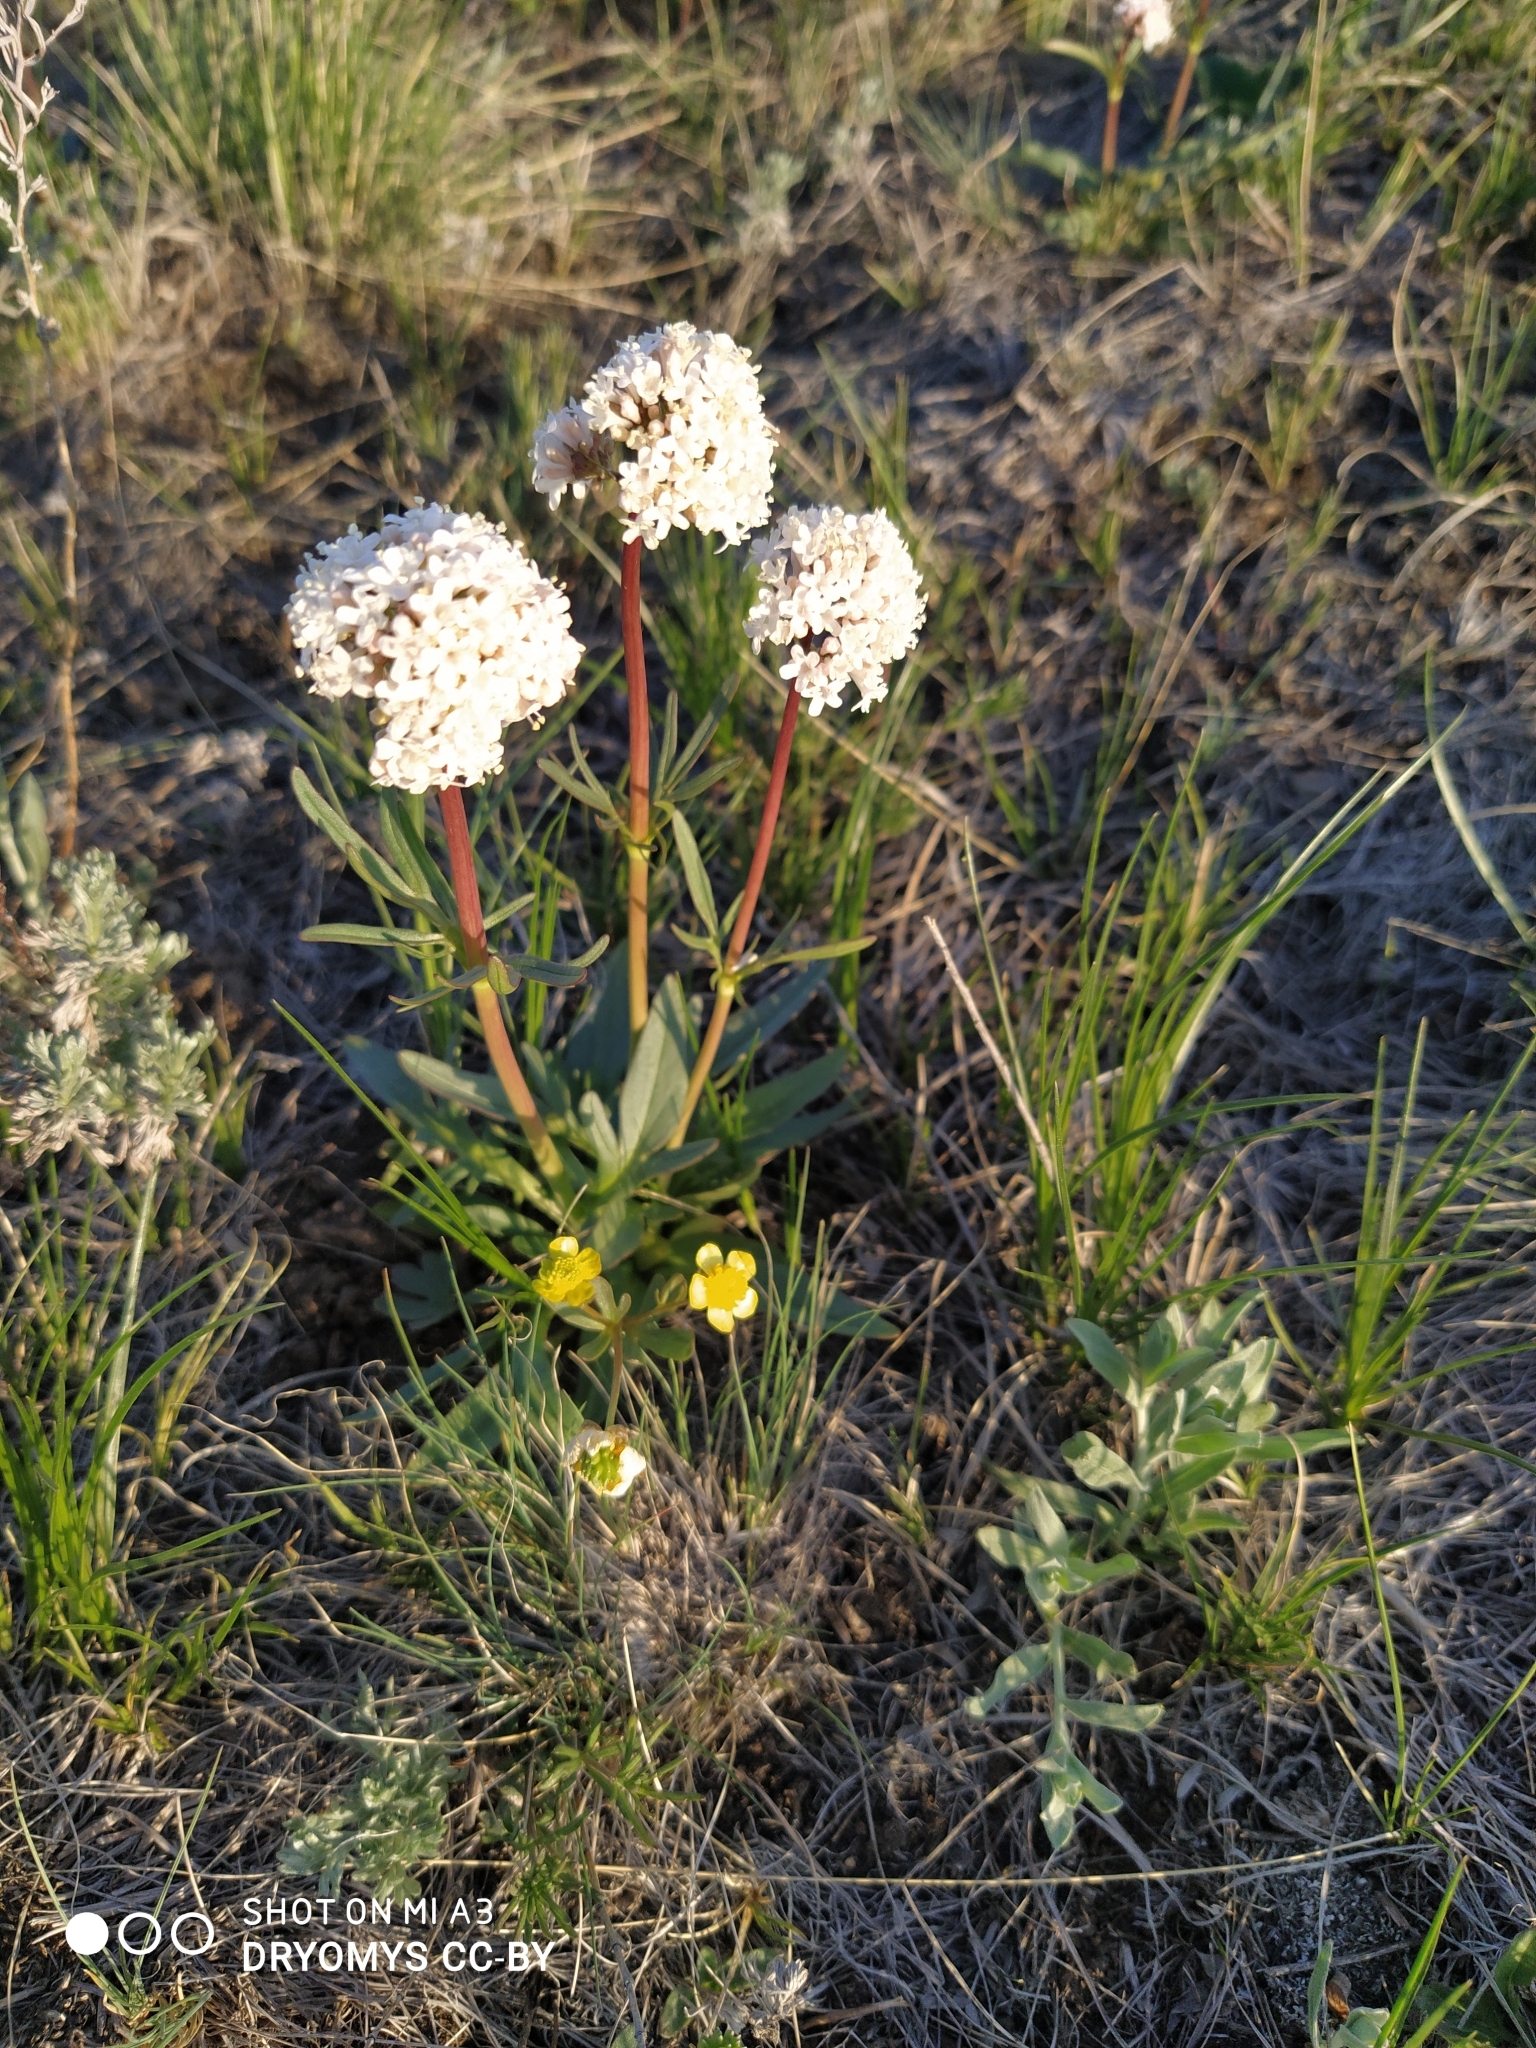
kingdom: Plantae
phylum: Tracheophyta
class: Magnoliopsida
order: Dipsacales
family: Caprifoliaceae
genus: Valeriana
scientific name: Valeriana tuberosa
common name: Tuberous valerian
